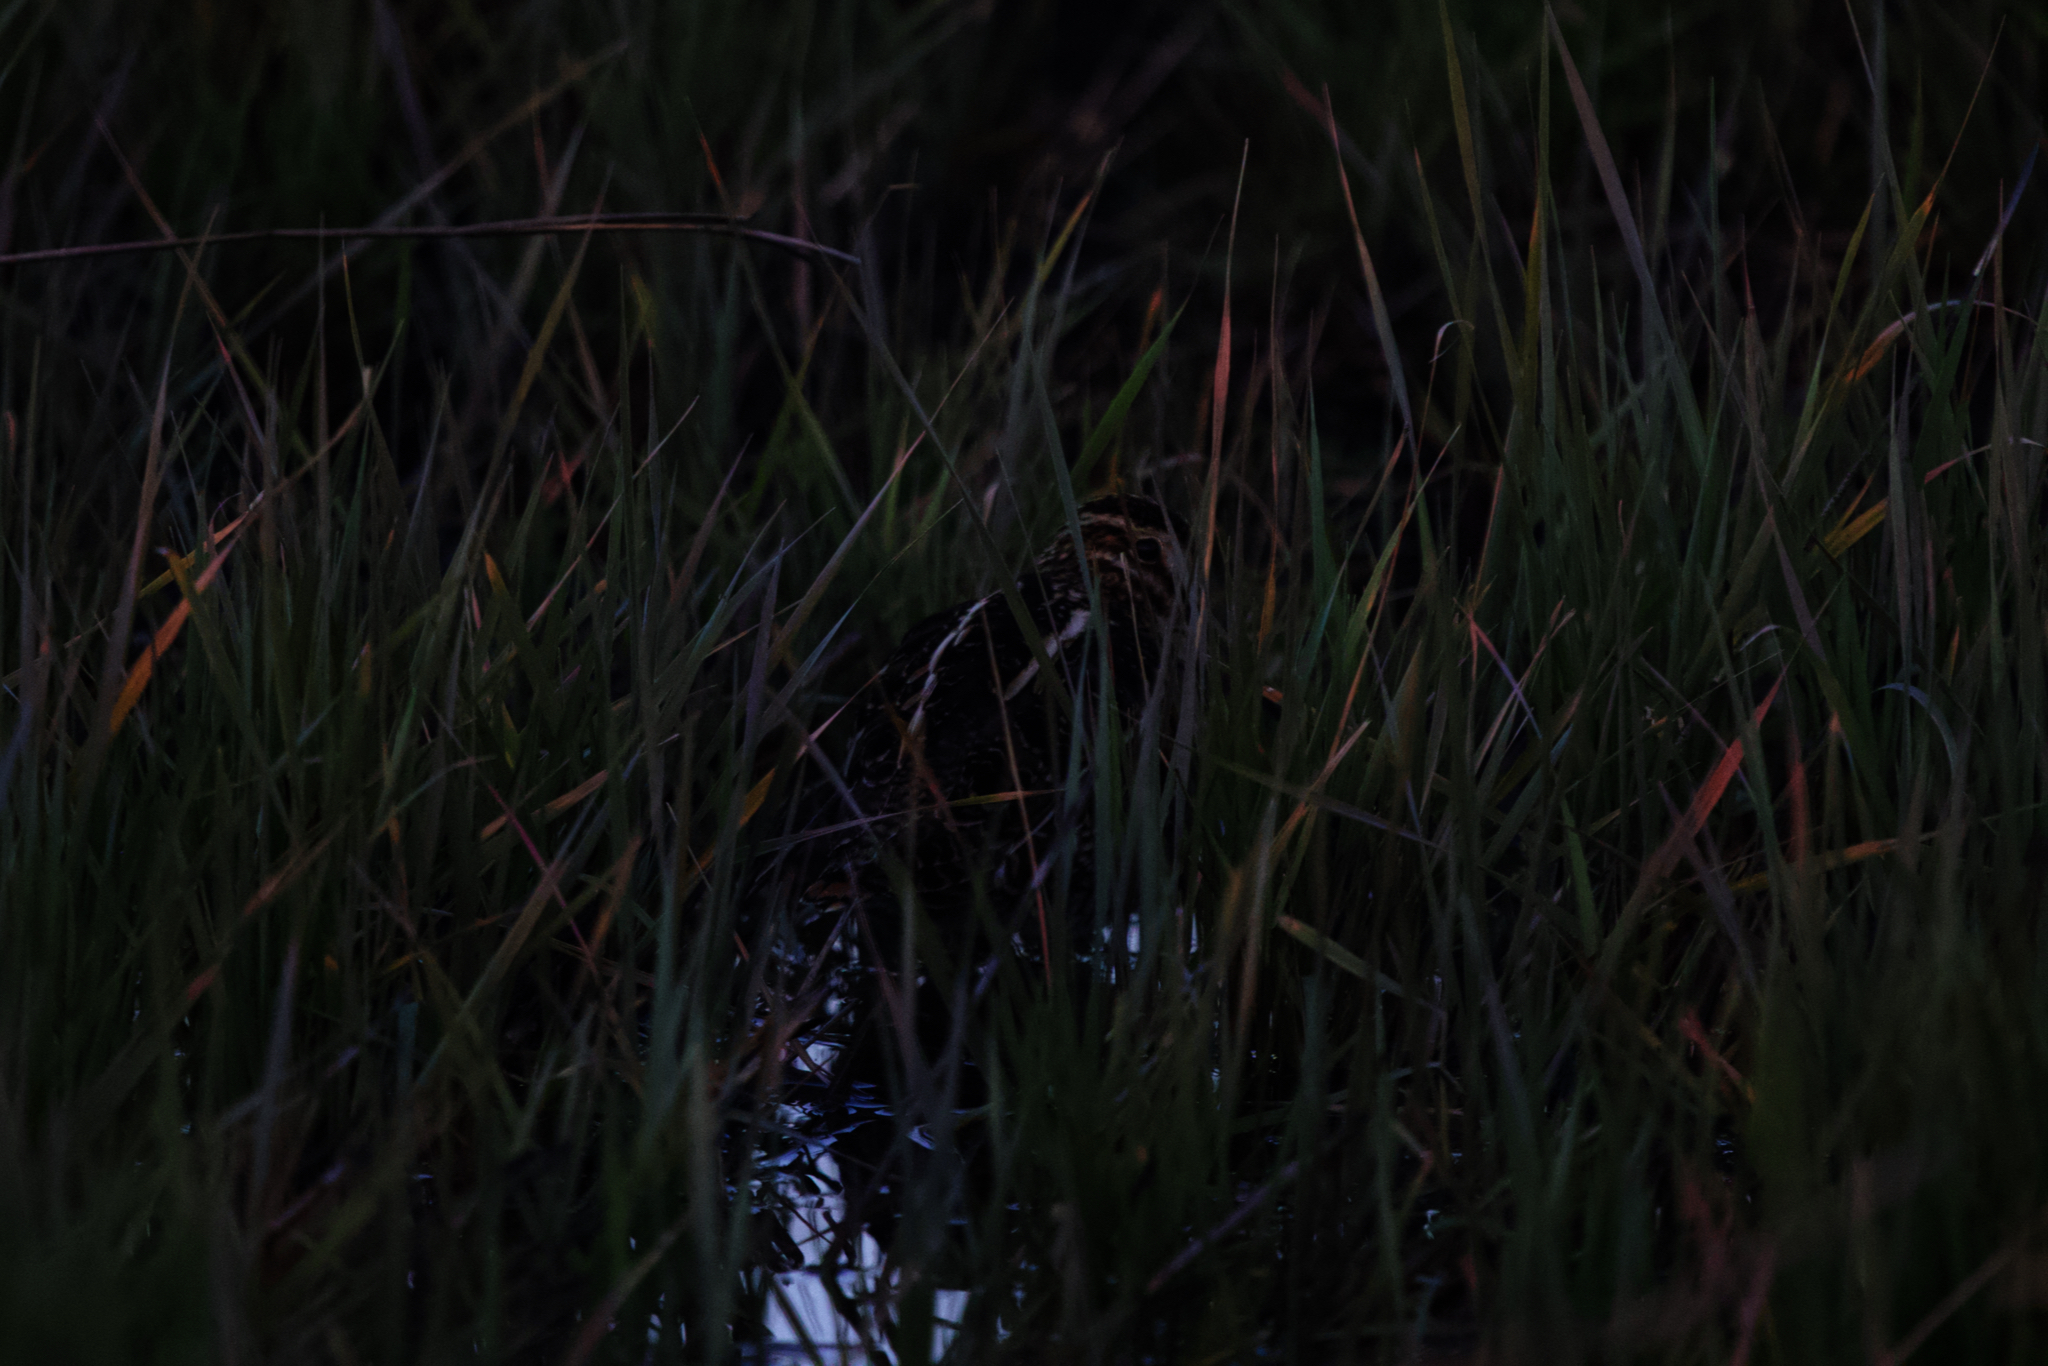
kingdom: Animalia
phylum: Chordata
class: Aves
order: Charadriiformes
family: Scolopacidae
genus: Gallinago
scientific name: Gallinago delicata
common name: Wilson's snipe
